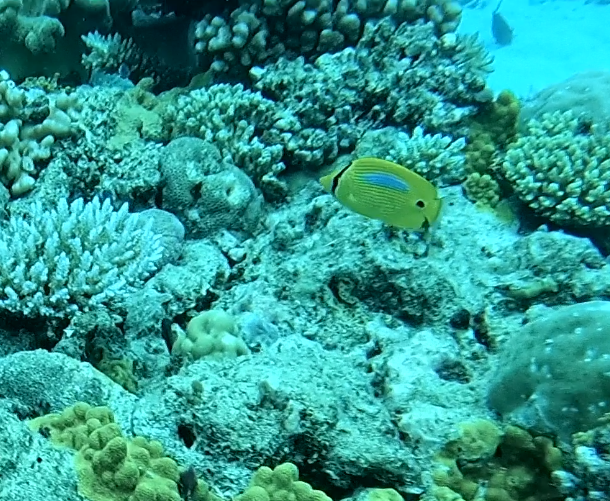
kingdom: Animalia
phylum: Chordata
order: Perciformes
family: Chaetodontidae
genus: Chaetodon
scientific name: Chaetodon plebeius
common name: Bluespot butterflyfish
